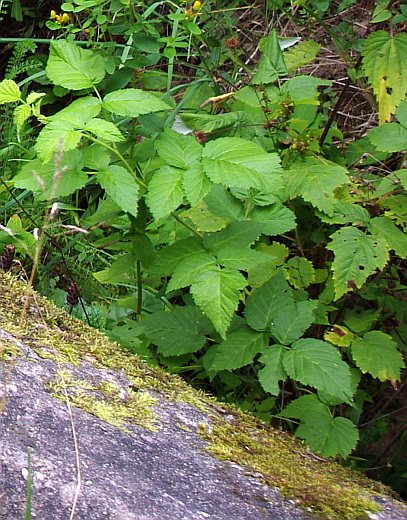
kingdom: Plantae
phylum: Tracheophyta
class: Magnoliopsida
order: Rosales
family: Rosaceae
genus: Rubus
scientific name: Rubus idaeus
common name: Raspberry
